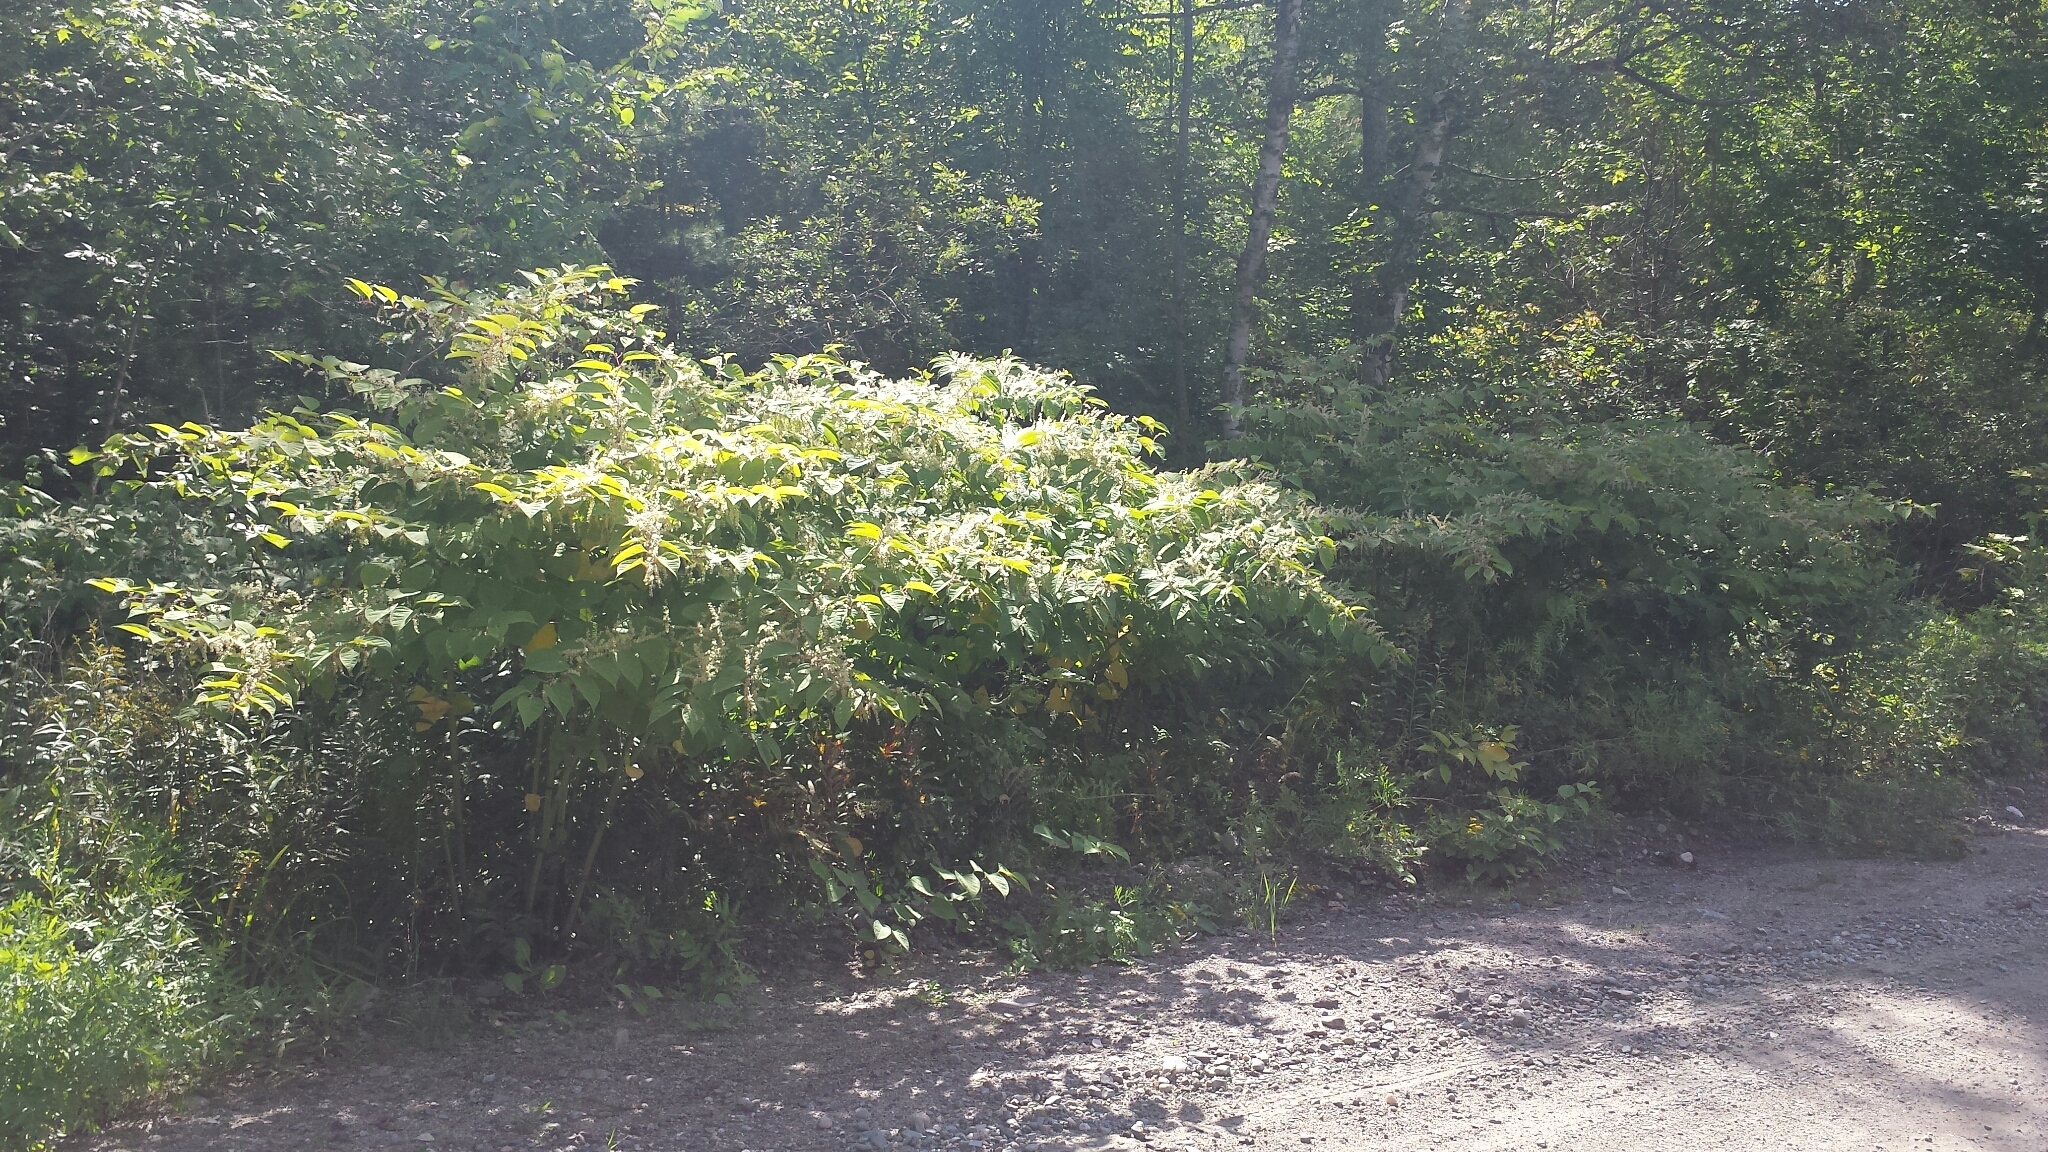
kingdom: Plantae
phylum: Tracheophyta
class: Magnoliopsida
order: Caryophyllales
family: Polygonaceae
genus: Reynoutria
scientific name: Reynoutria japonica
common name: Japanese knotweed
